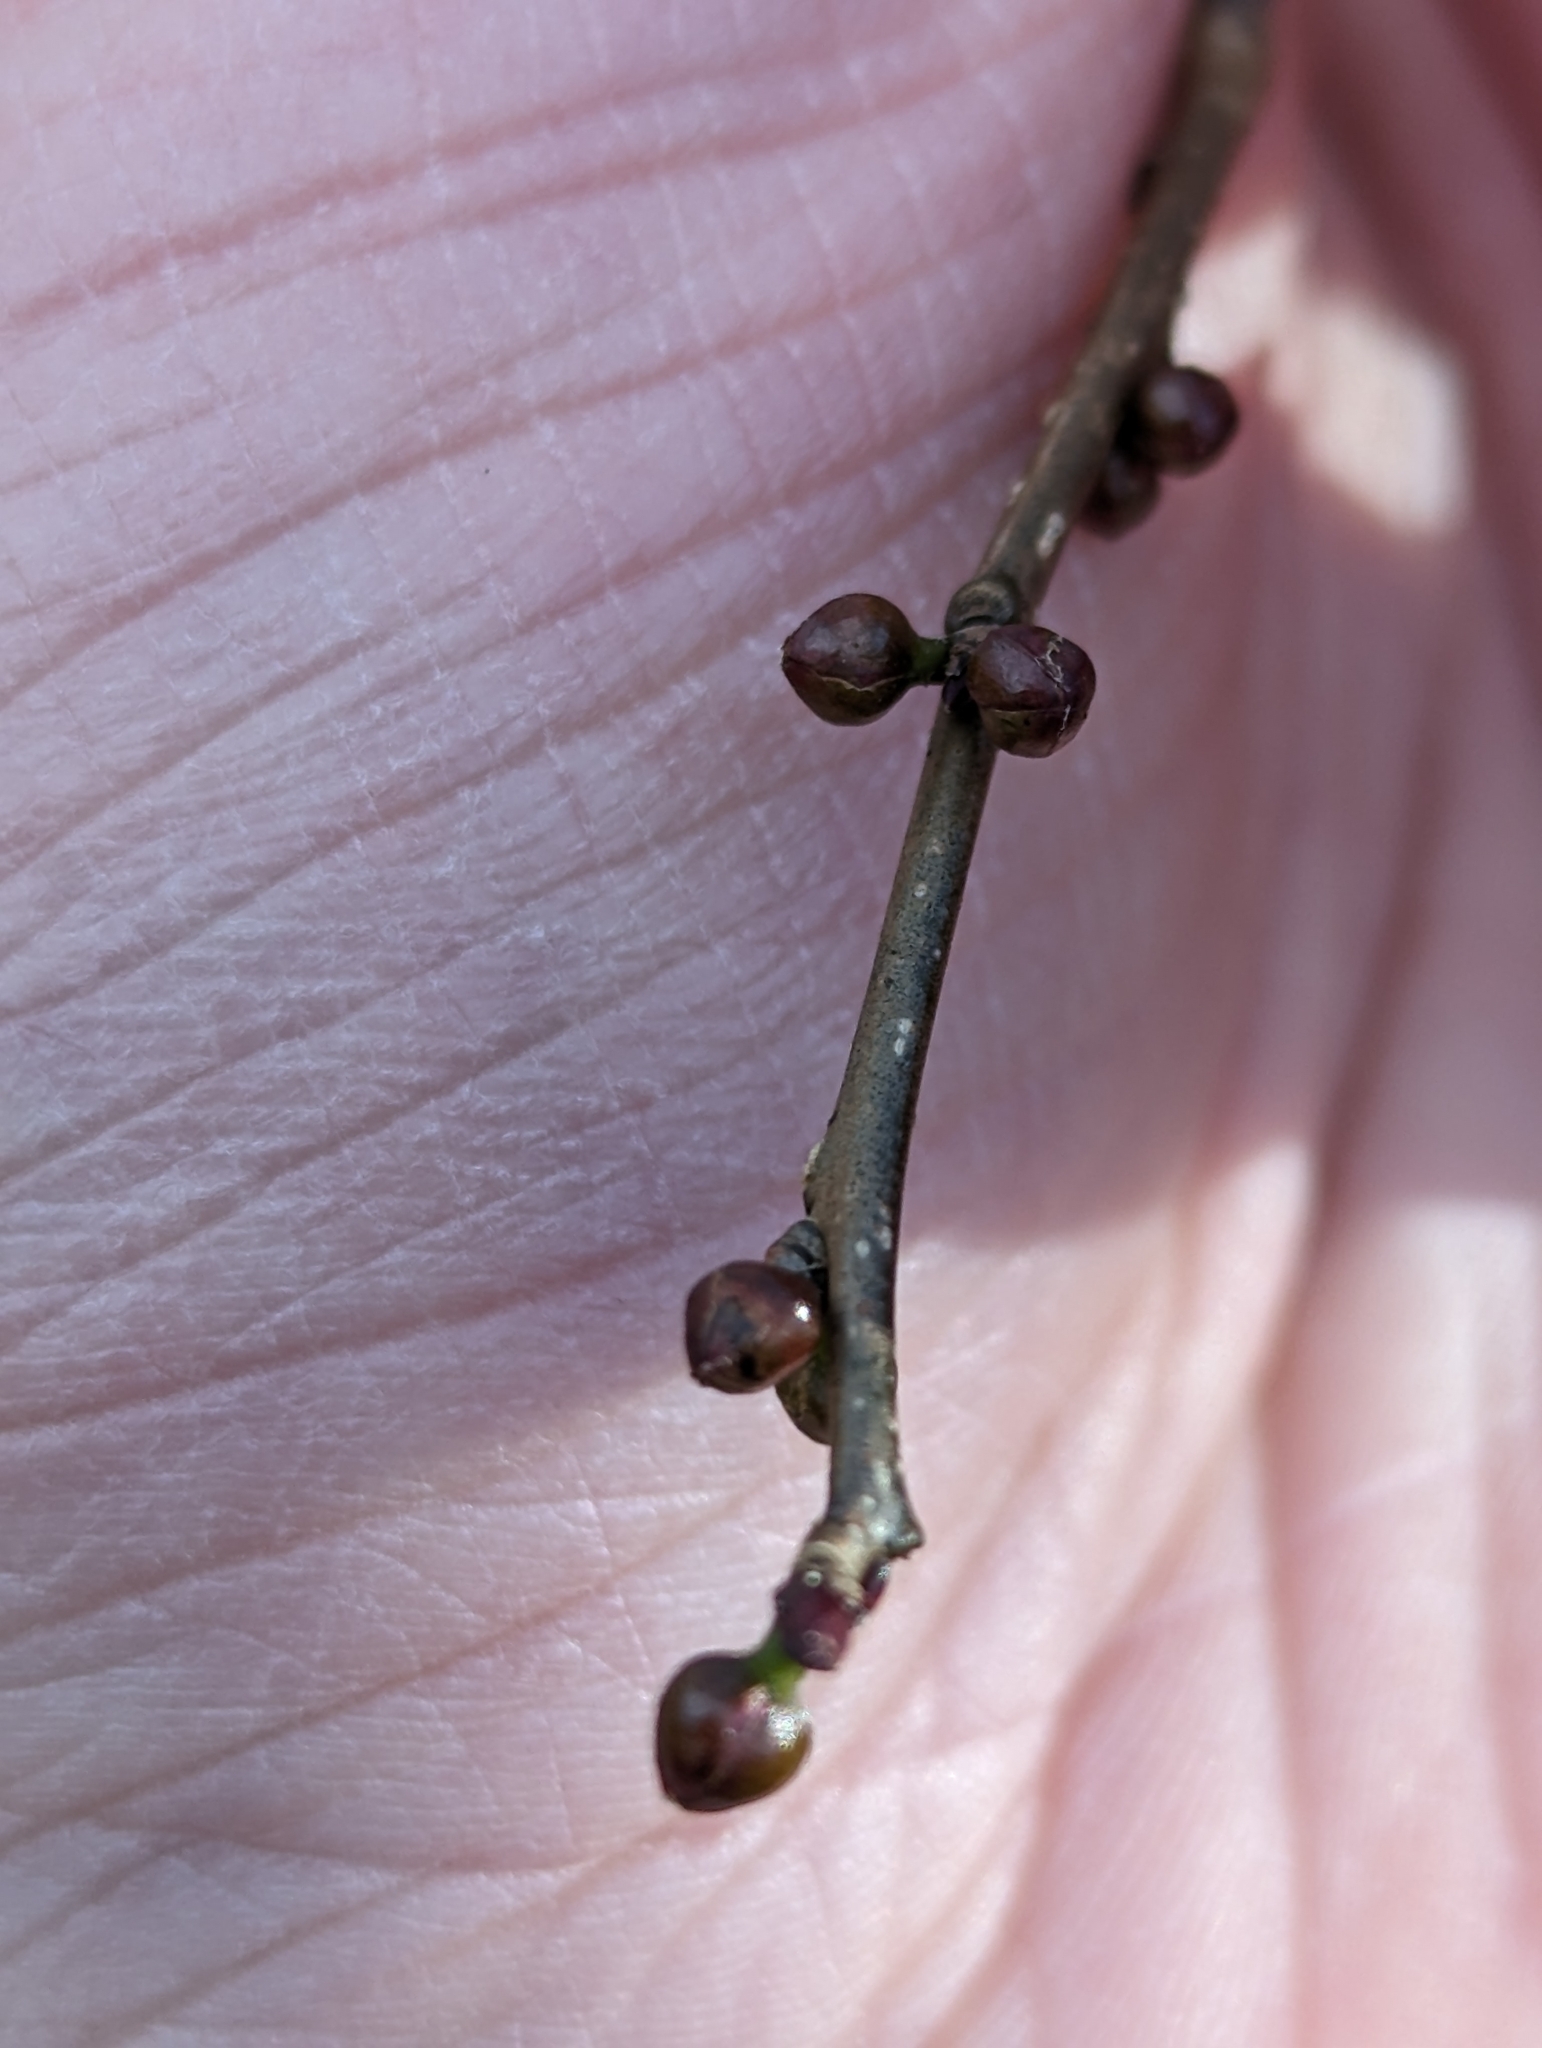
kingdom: Plantae
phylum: Tracheophyta
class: Magnoliopsida
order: Laurales
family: Lauraceae
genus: Lindera
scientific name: Lindera benzoin
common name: Spicebush
